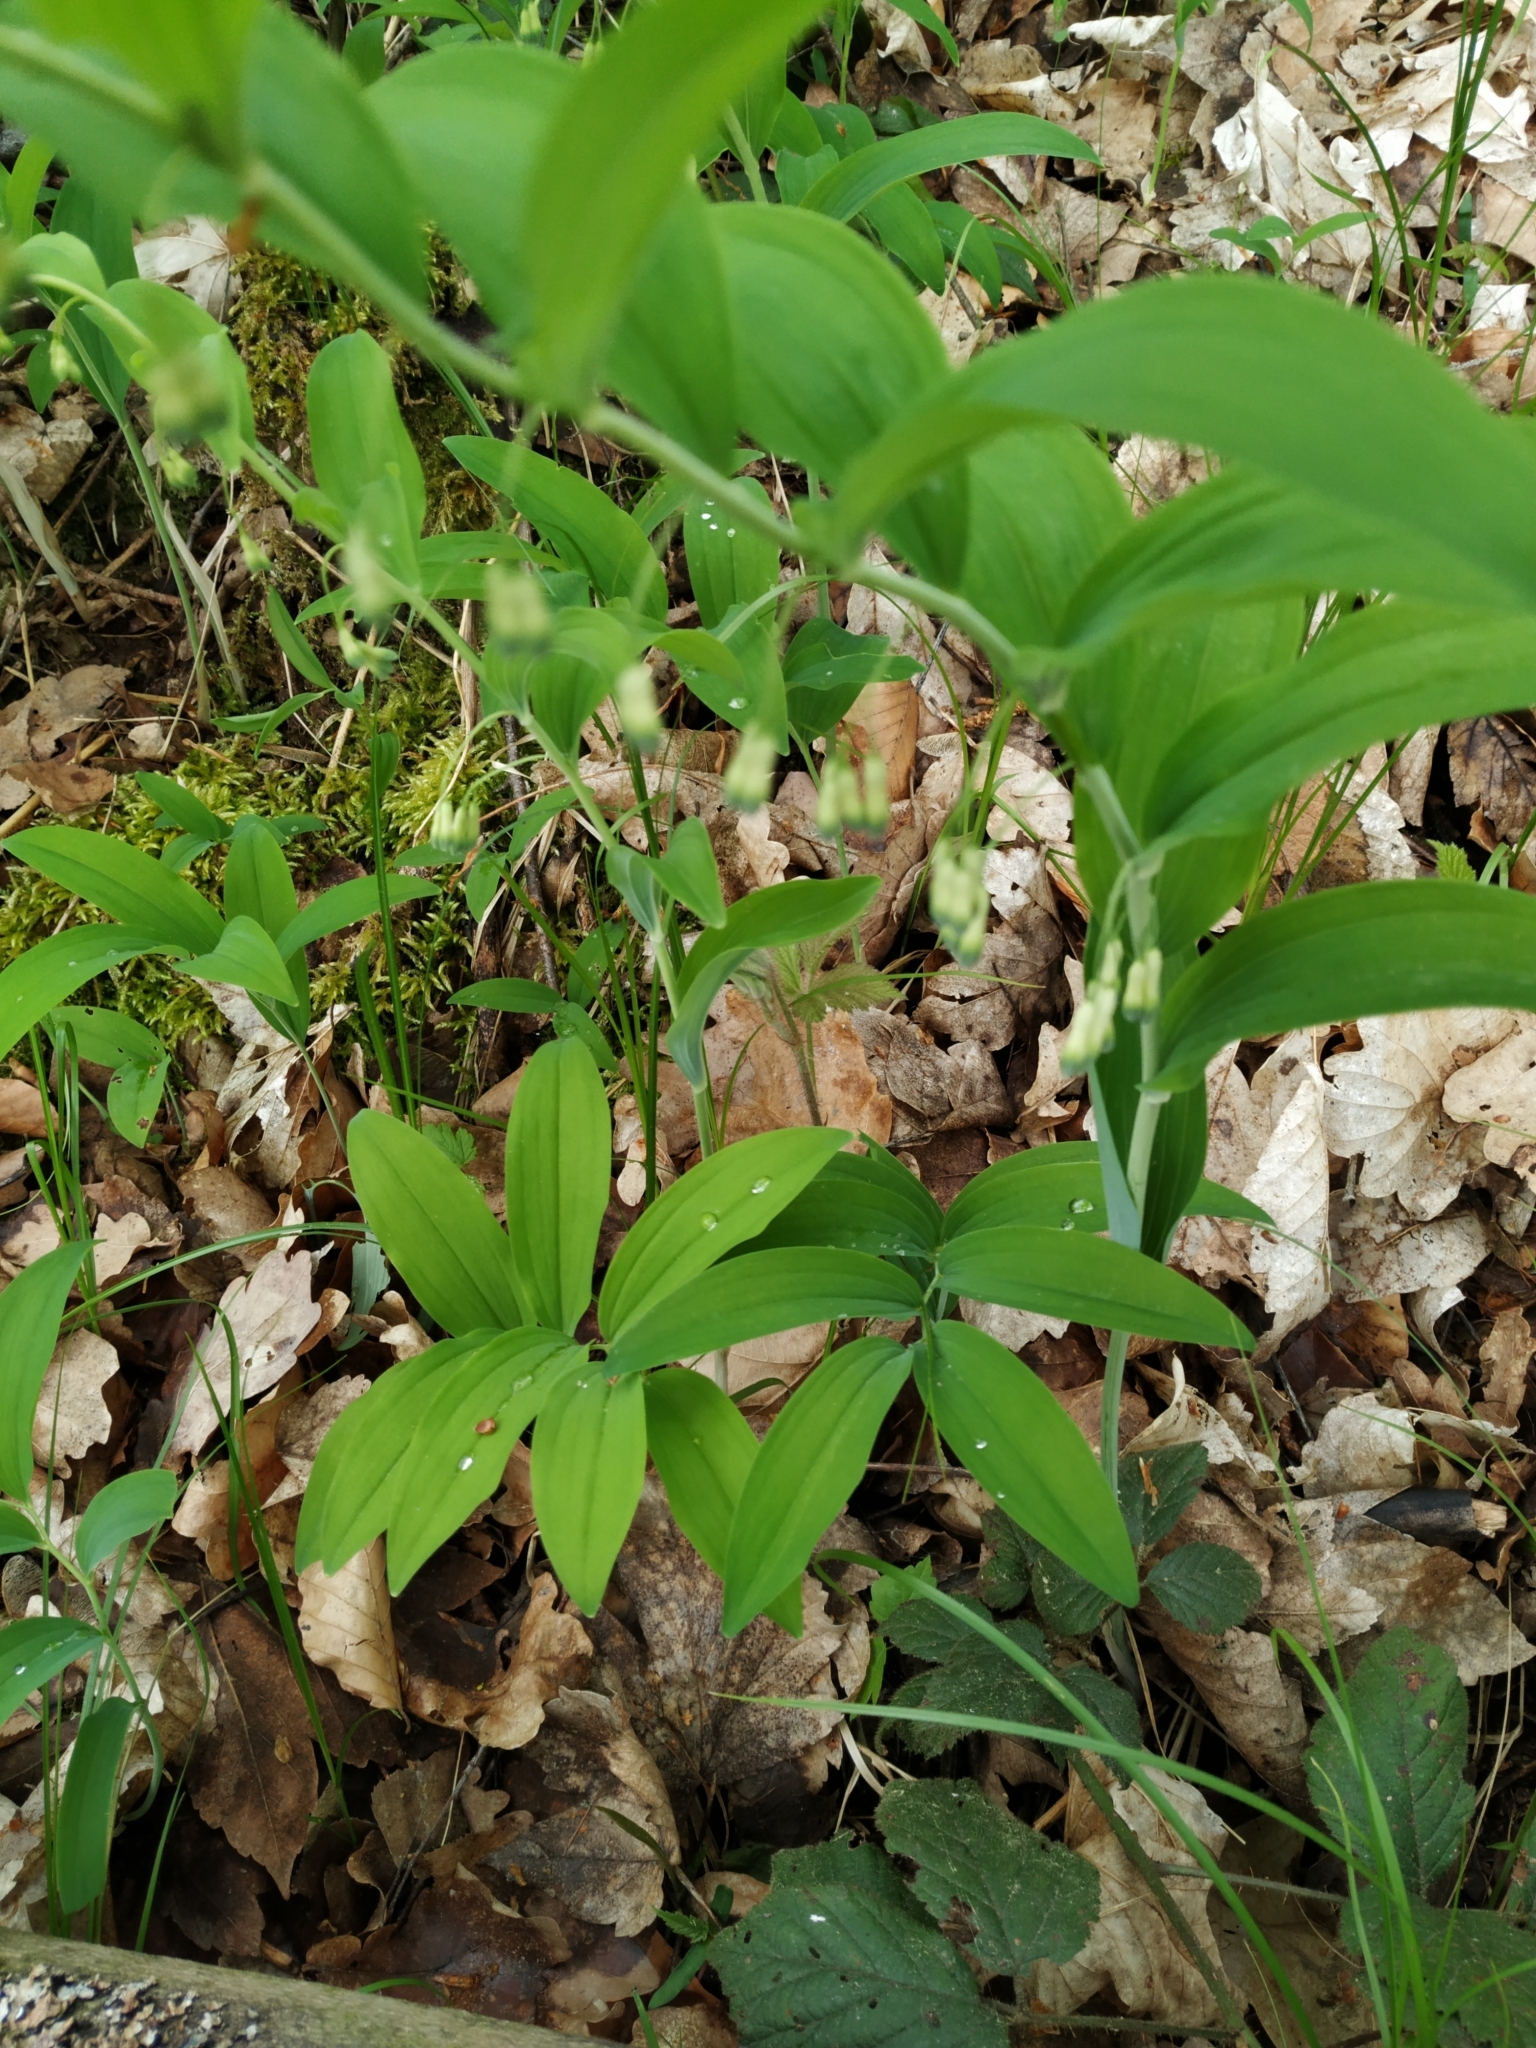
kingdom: Plantae
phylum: Tracheophyta
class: Liliopsida
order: Asparagales
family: Asparagaceae
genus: Polygonatum
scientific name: Polygonatum multiflorum
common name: Solomon's-seal
